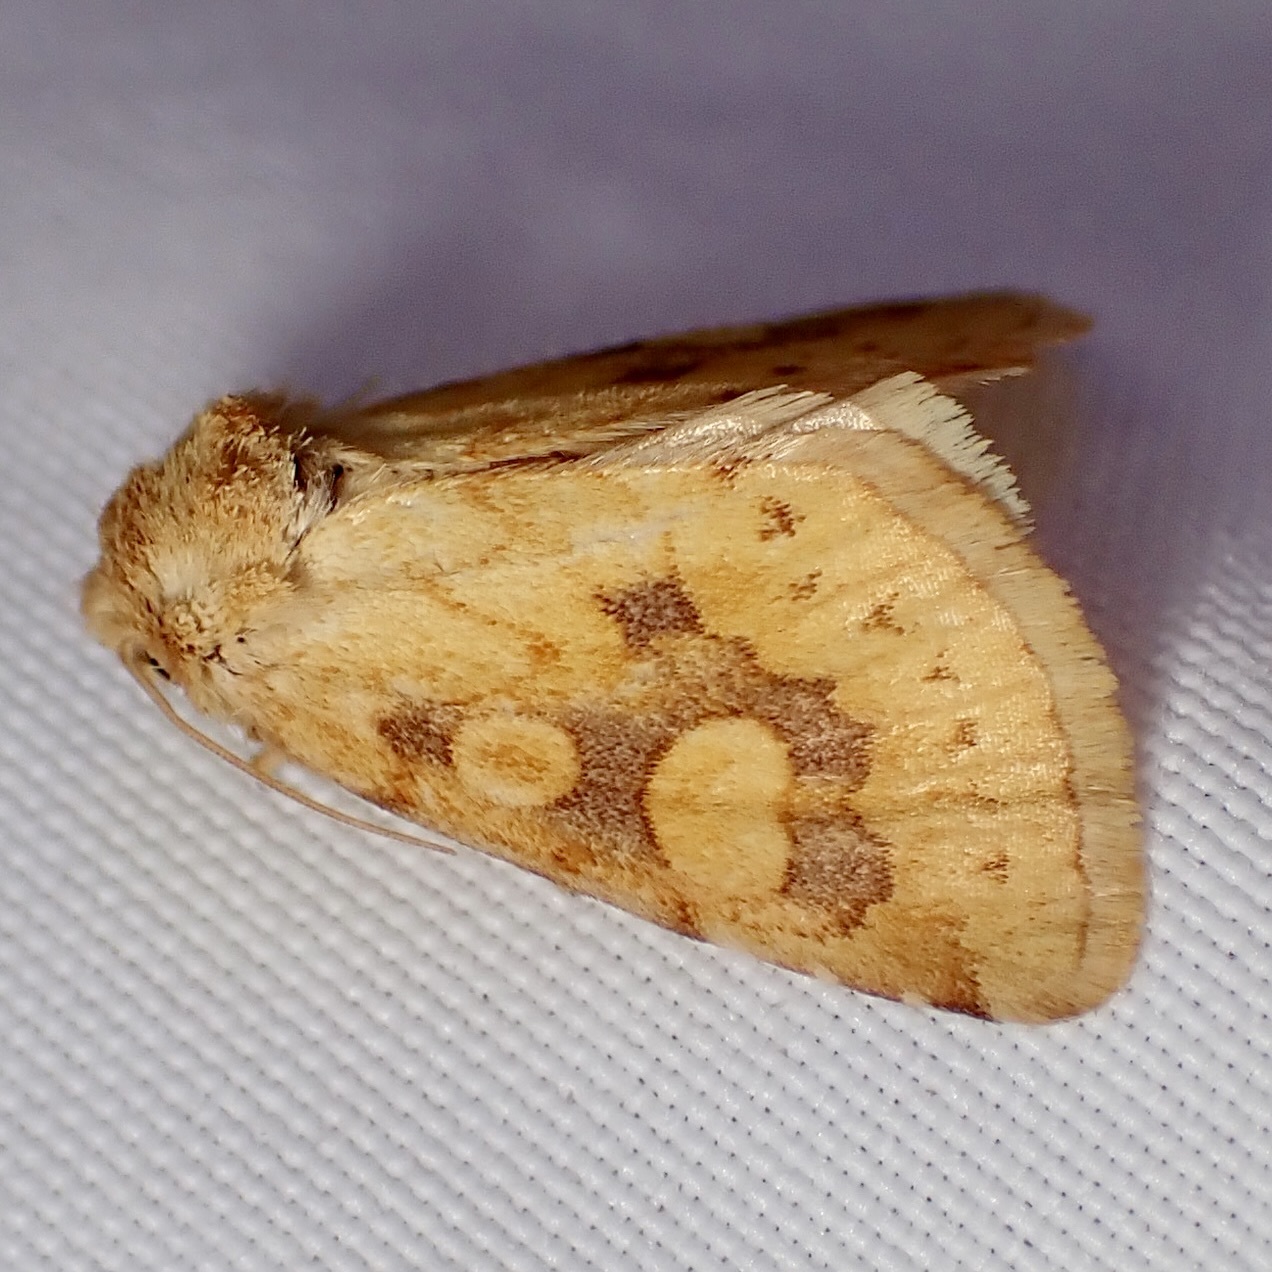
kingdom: Animalia
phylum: Arthropoda
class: Insecta
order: Lepidoptera
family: Noctuidae
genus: Nocloa
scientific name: Nocloa cordova
